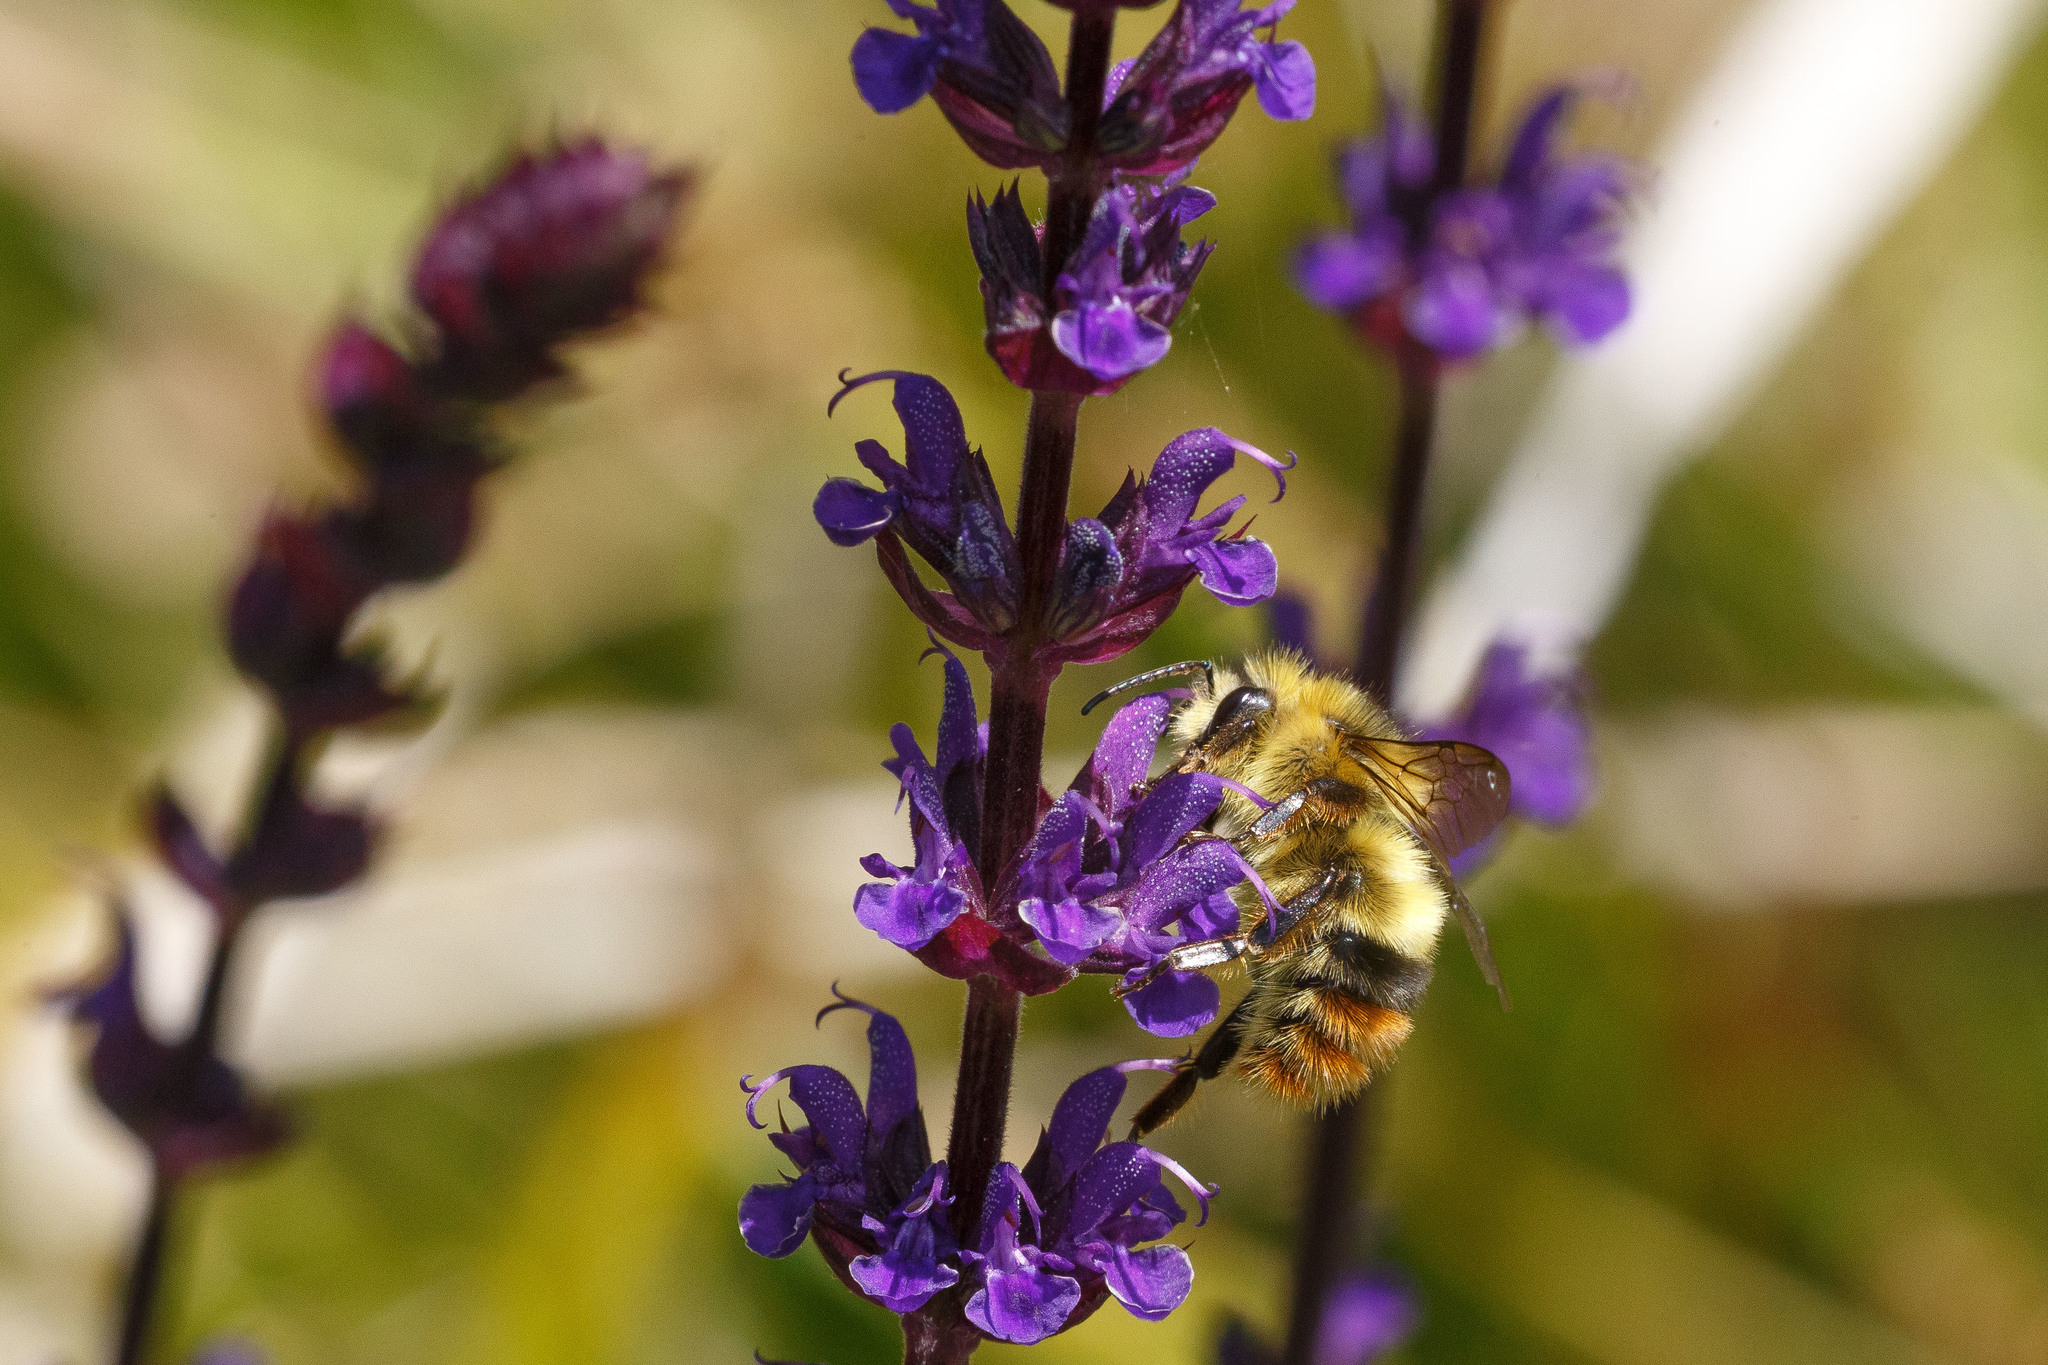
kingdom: Animalia
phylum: Arthropoda
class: Insecta
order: Hymenoptera
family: Apidae
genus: Bombus
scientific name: Bombus mixtus
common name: Fuzzy-horned bumble bee
